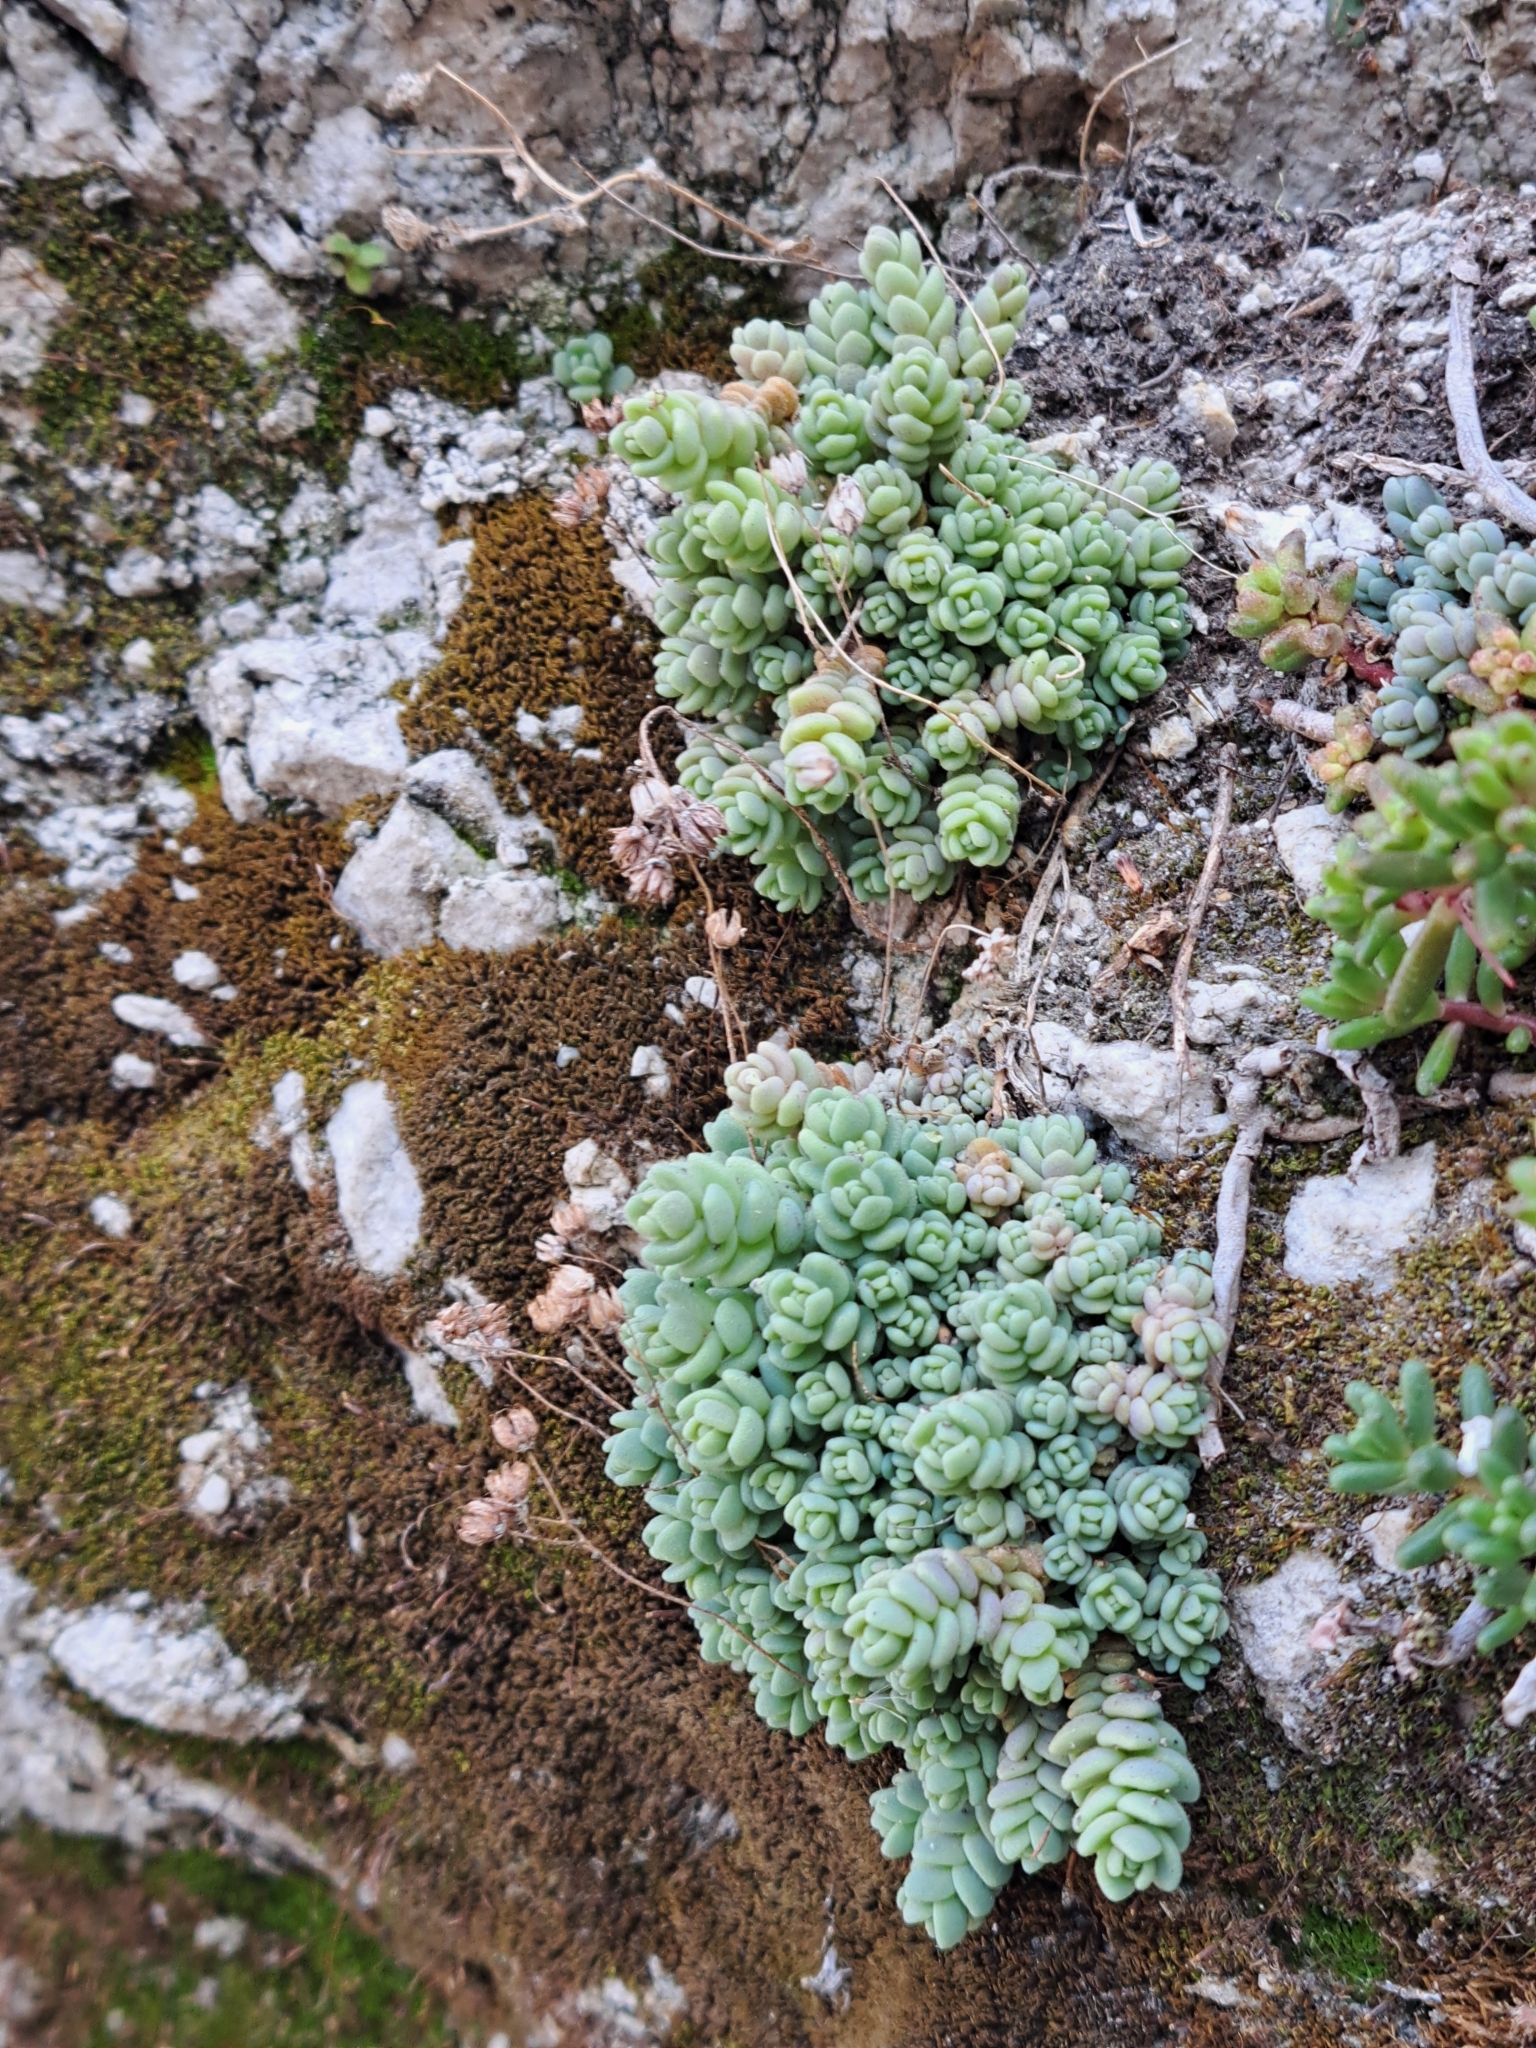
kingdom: Plantae
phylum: Tracheophyta
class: Magnoliopsida
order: Saxifragales
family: Crassulaceae
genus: Sedum
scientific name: Sedum dasyphyllum
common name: Thick-leaf stonecrop
